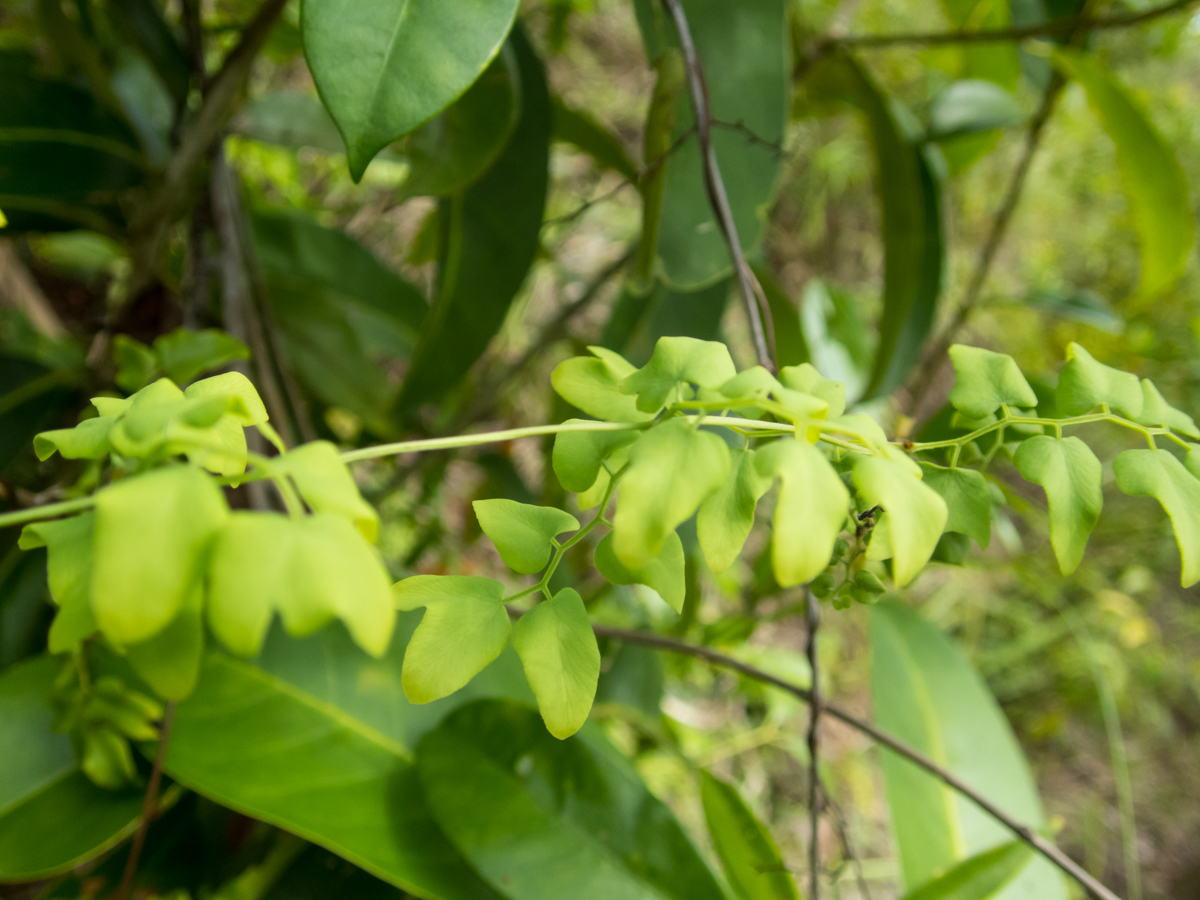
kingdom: Plantae
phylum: Tracheophyta
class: Polypodiopsida
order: Schizaeales
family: Lygodiaceae
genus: Lygodium
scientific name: Lygodium microphyllum
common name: Small-leaf climbing fern
